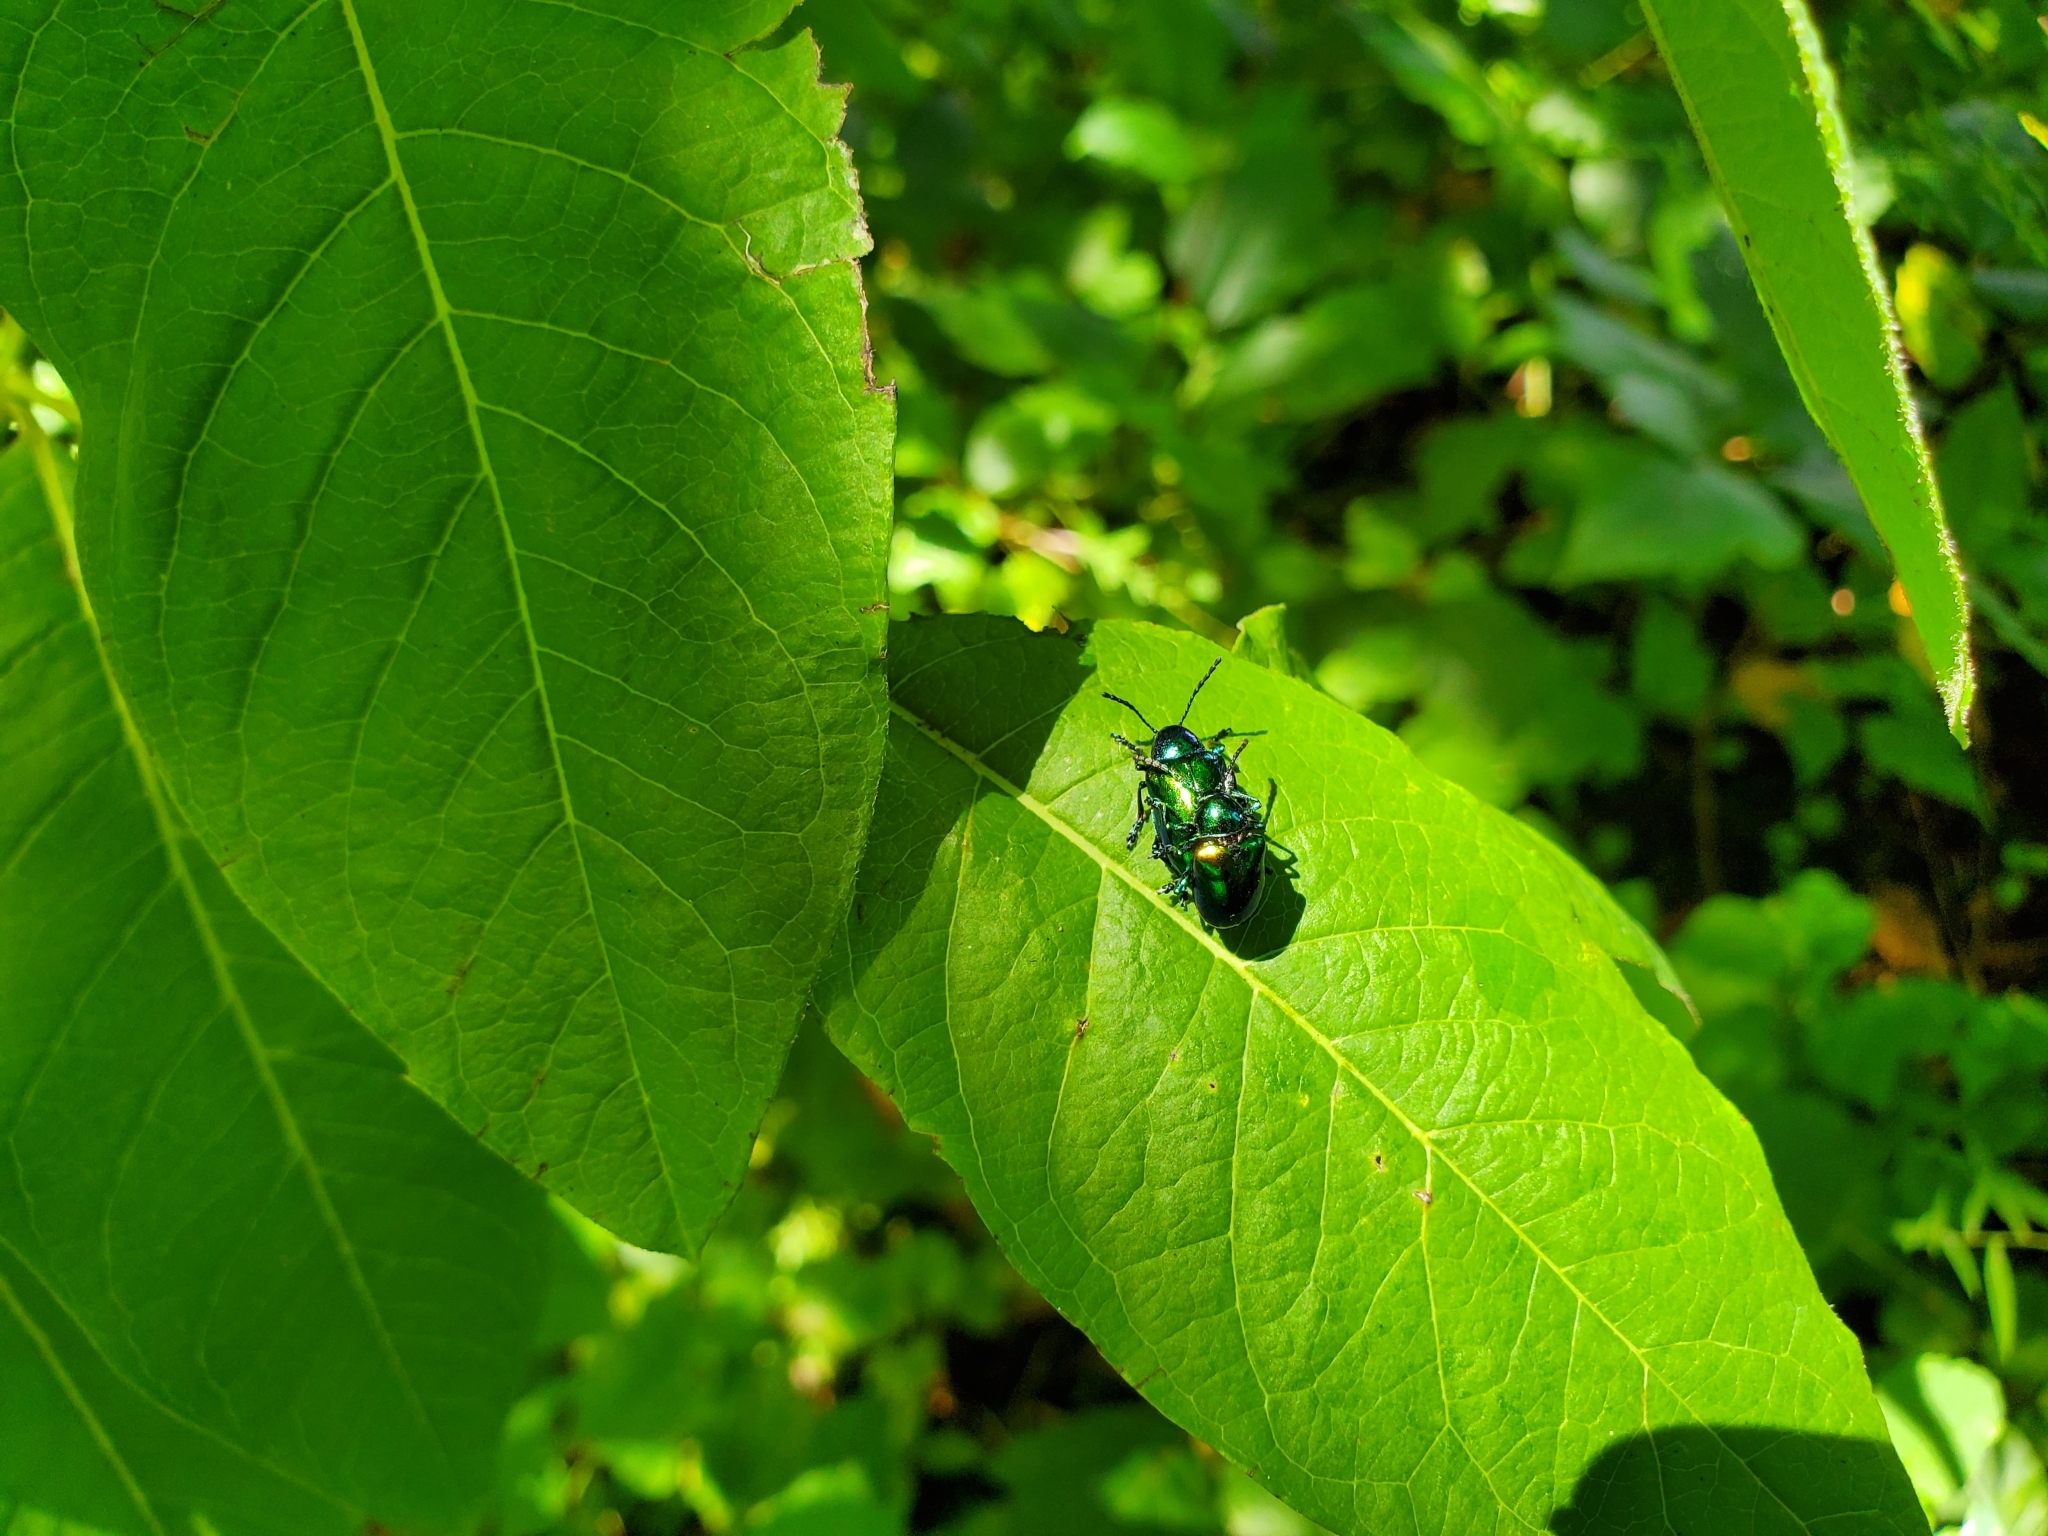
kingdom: Animalia
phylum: Arthropoda
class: Insecta
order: Coleoptera
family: Chrysomelidae
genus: Chrysochus
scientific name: Chrysochus auratus
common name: Dogbane leaf beetle
